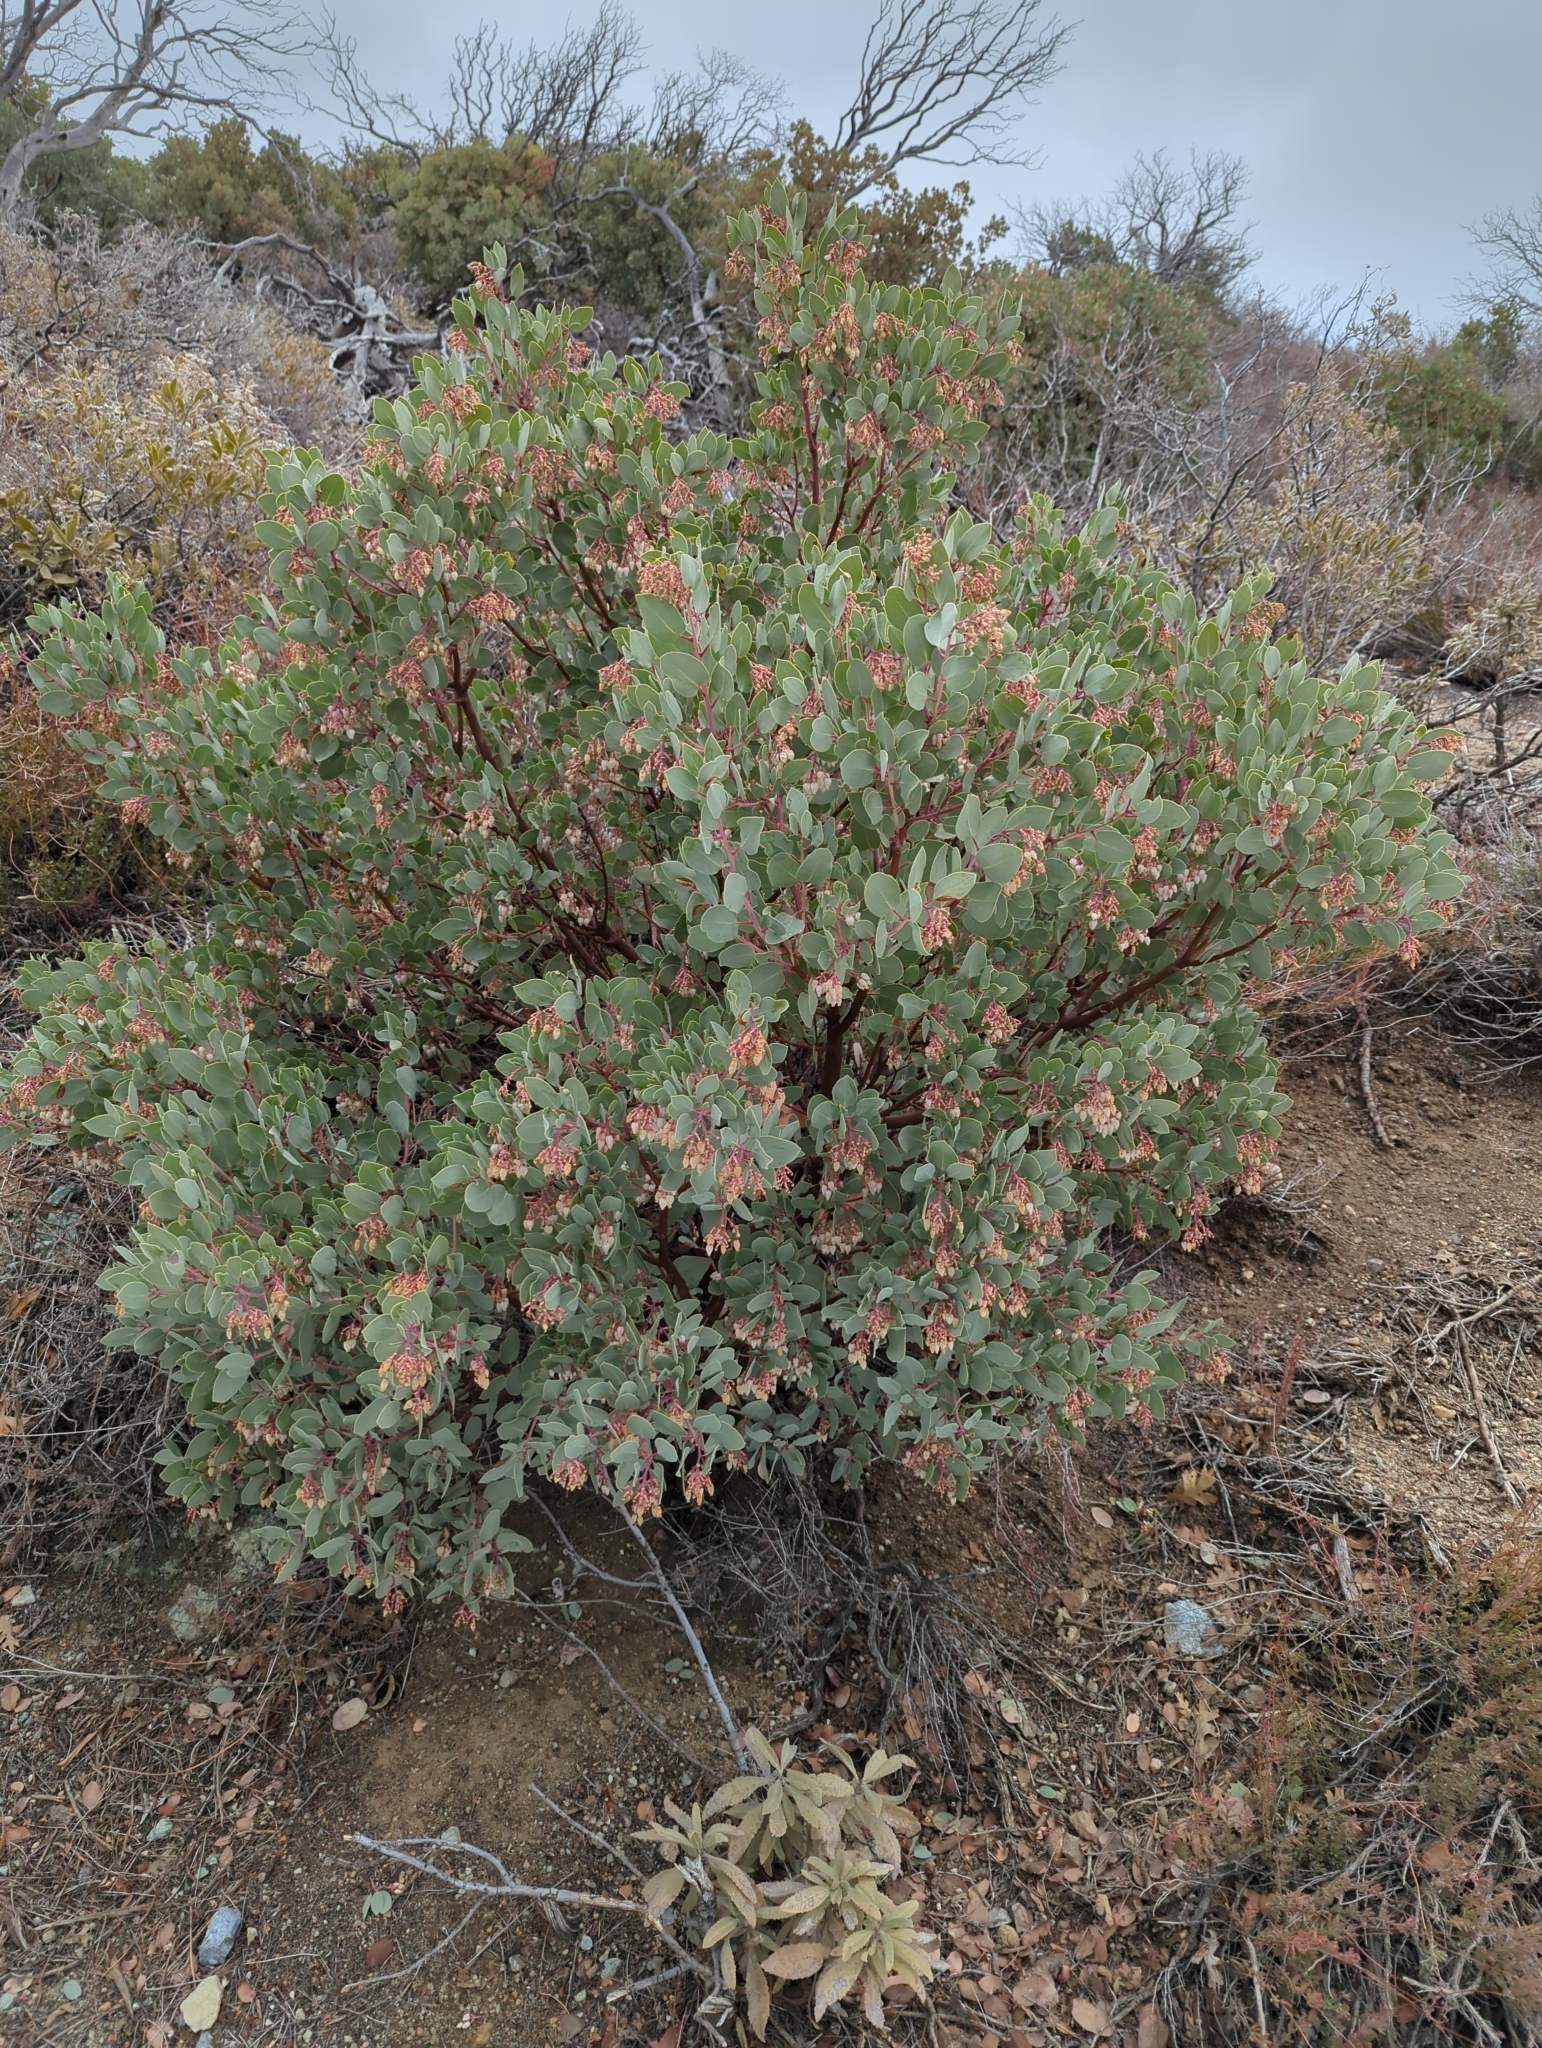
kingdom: Plantae
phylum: Tracheophyta
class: Magnoliopsida
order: Ericales
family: Ericaceae
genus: Arctostaphylos
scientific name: Arctostaphylos glauca
